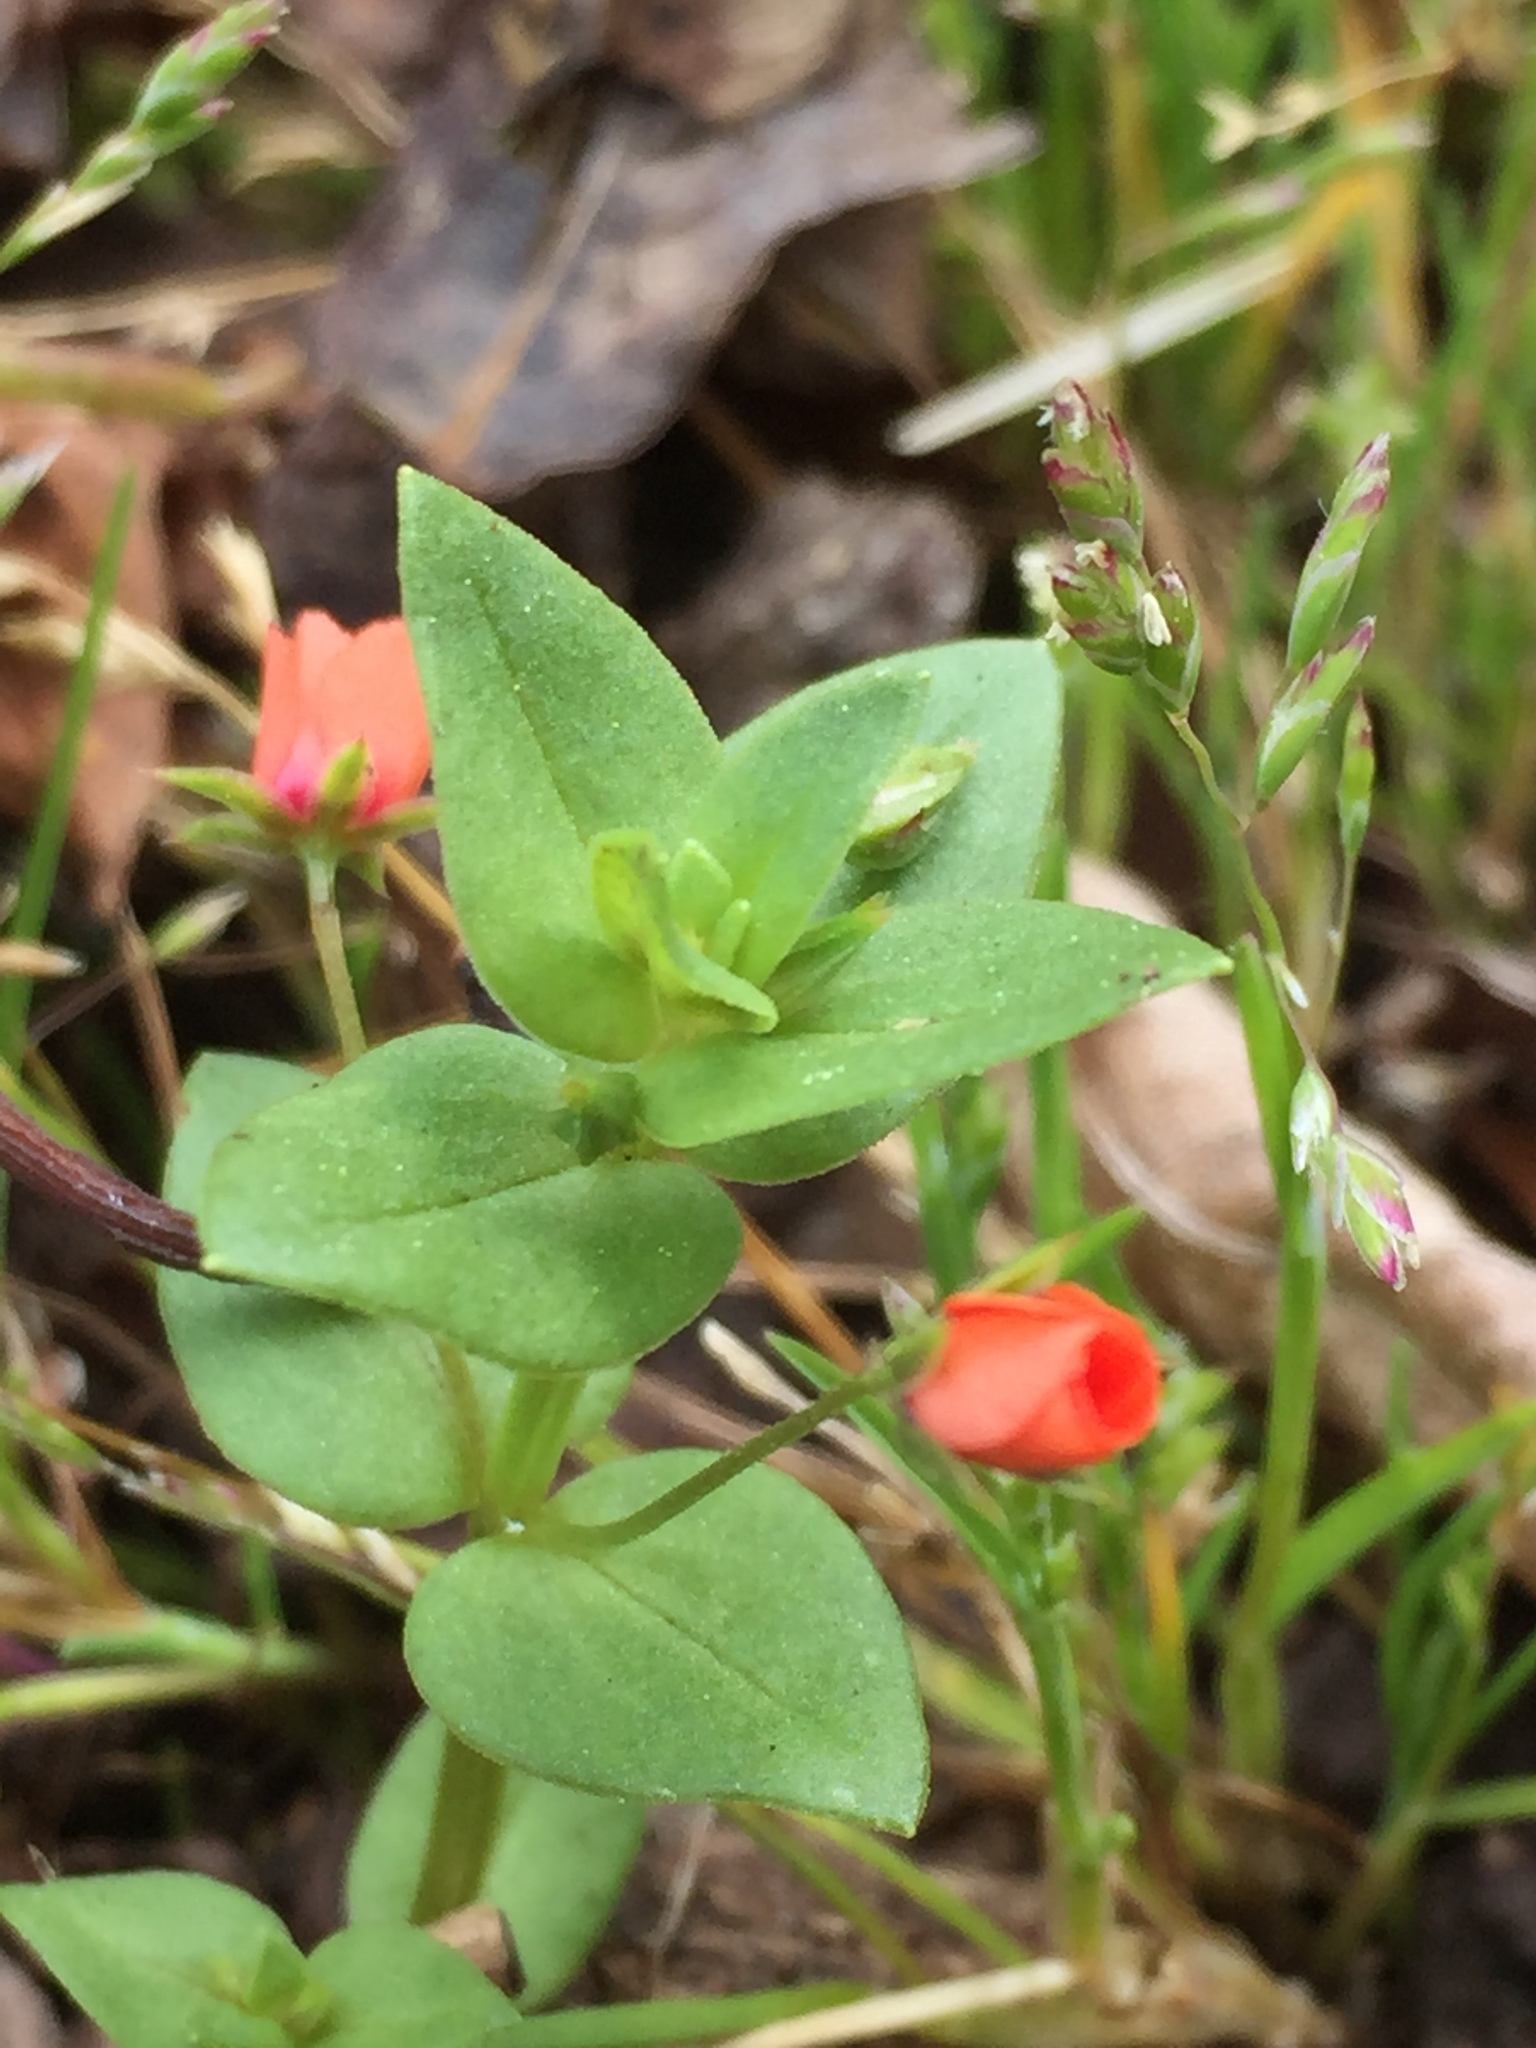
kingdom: Plantae
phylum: Tracheophyta
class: Magnoliopsida
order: Ericales
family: Primulaceae
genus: Lysimachia
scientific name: Lysimachia arvensis
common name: Scarlet pimpernel
